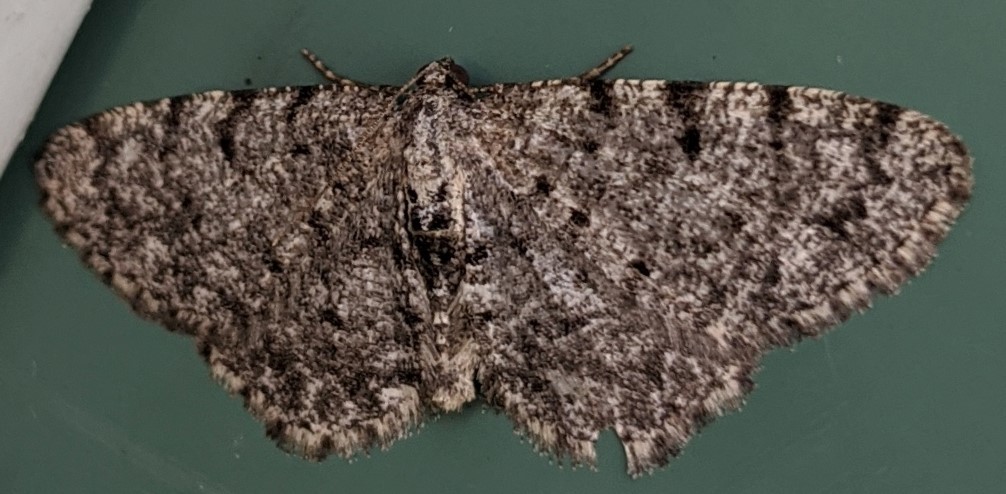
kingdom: Animalia
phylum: Arthropoda
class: Insecta
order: Lepidoptera
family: Geometridae
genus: Aethalura
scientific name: Aethalura intertexta
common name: Four-barred gray
